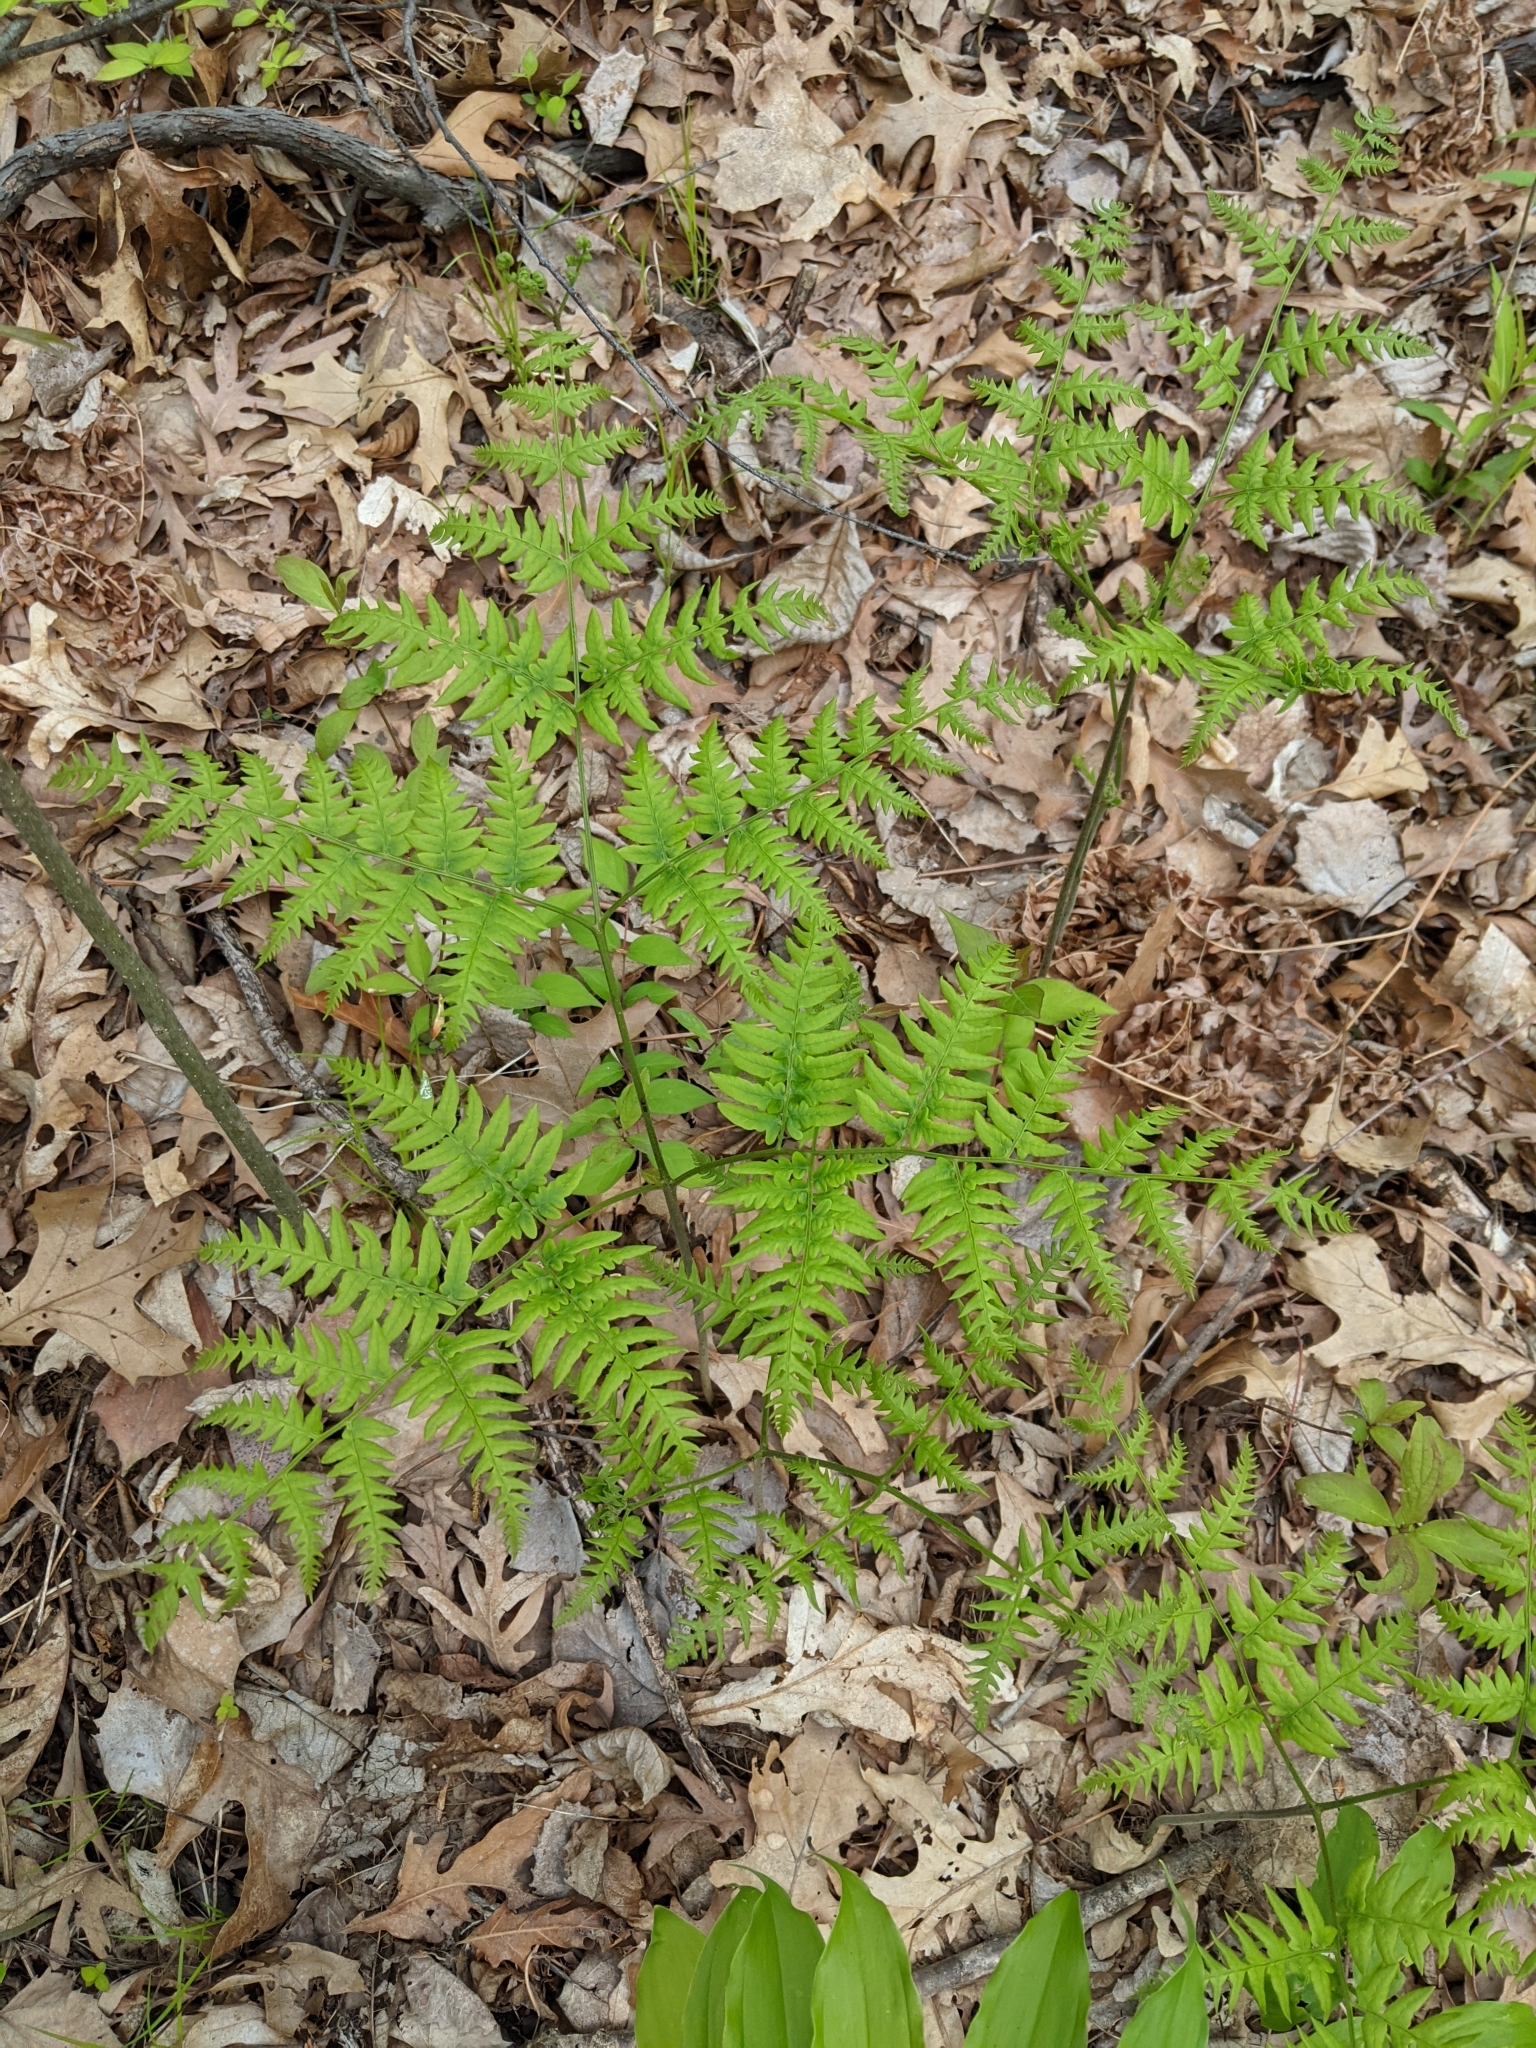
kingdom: Plantae
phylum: Tracheophyta
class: Polypodiopsida
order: Polypodiales
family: Dennstaedtiaceae
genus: Pteridium
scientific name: Pteridium aquilinum
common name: Bracken
